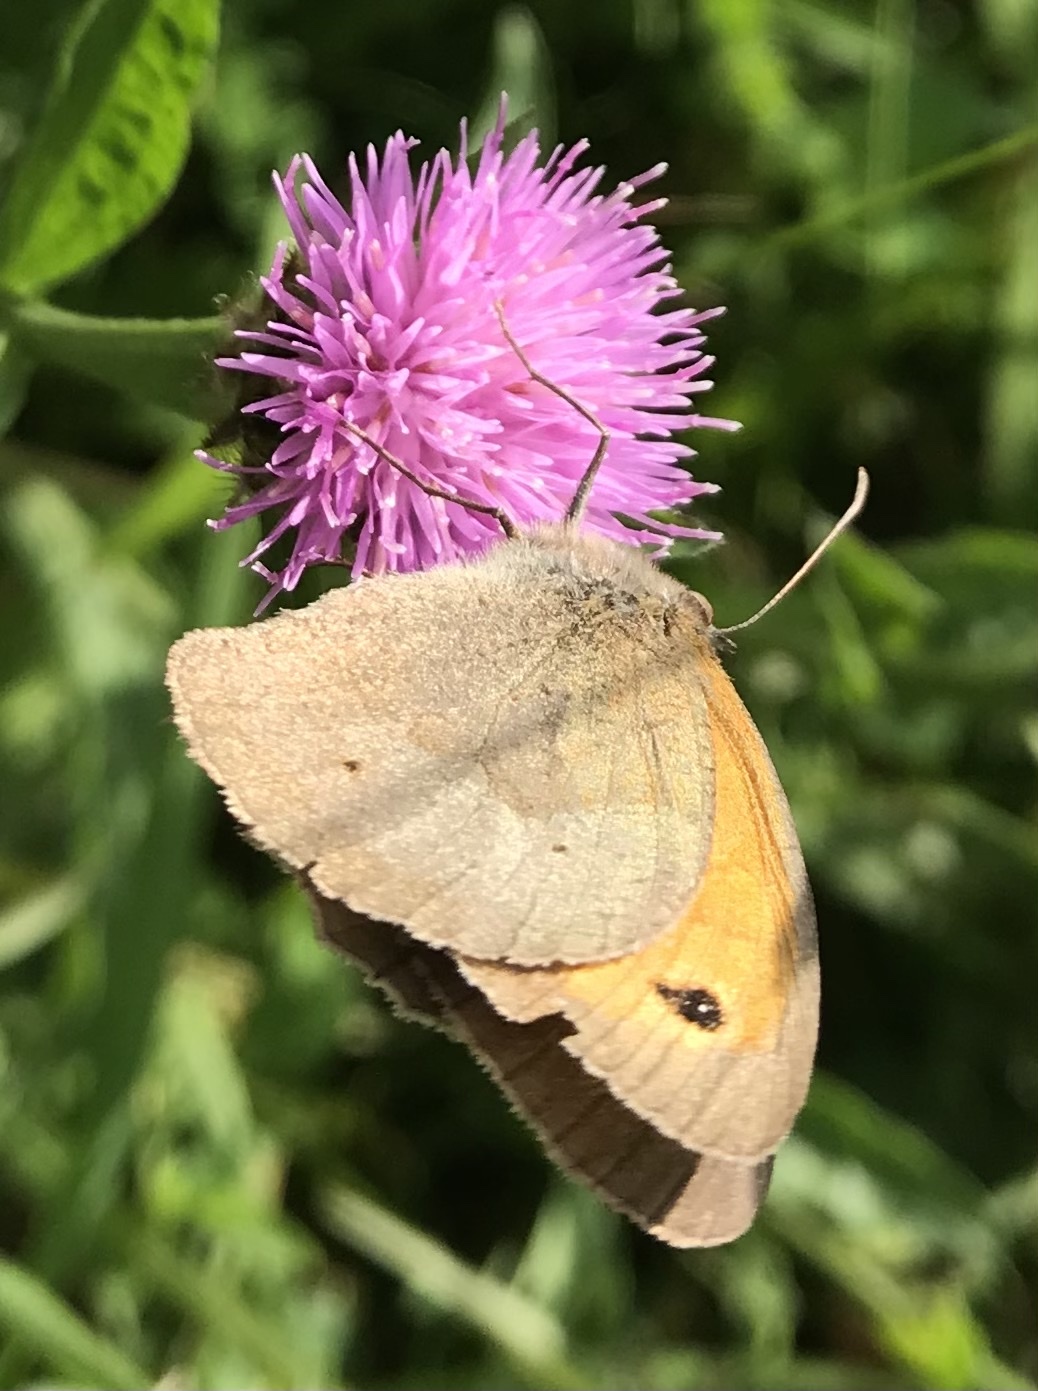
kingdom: Animalia
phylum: Arthropoda
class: Insecta
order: Lepidoptera
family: Nymphalidae
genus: Maniola
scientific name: Maniola jurtina
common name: Meadow brown
